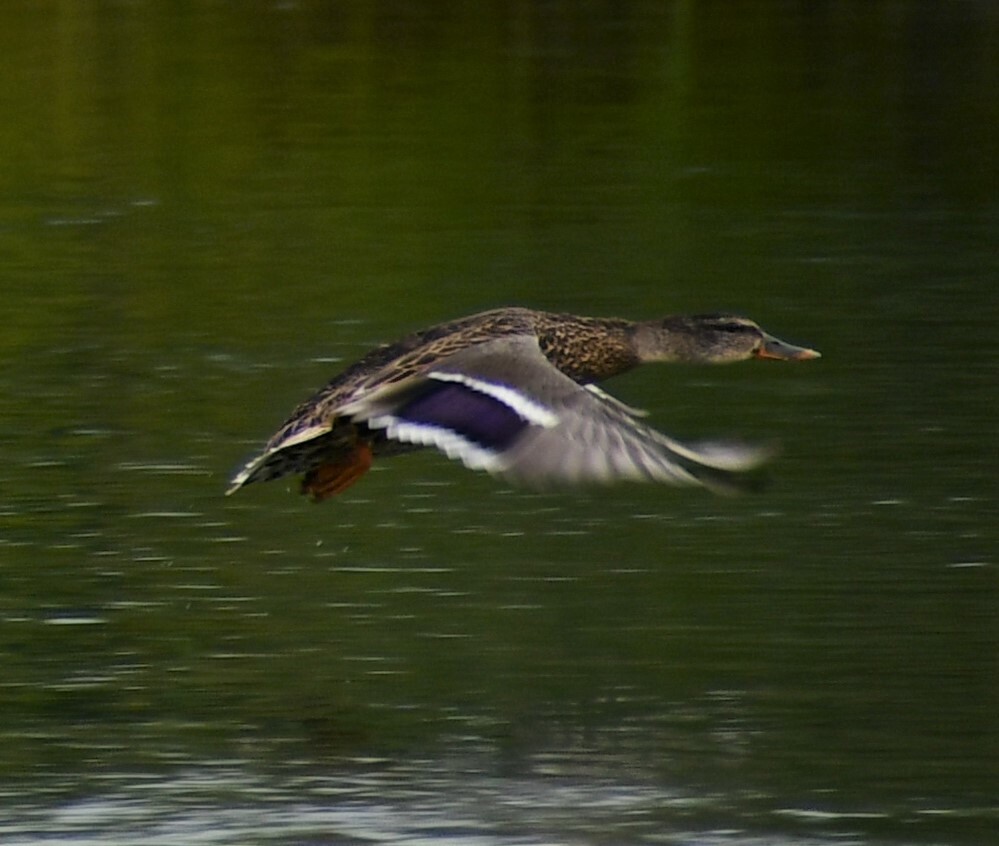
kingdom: Animalia
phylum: Chordata
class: Aves
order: Anseriformes
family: Anatidae
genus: Anas
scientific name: Anas platyrhynchos
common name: Mallard
